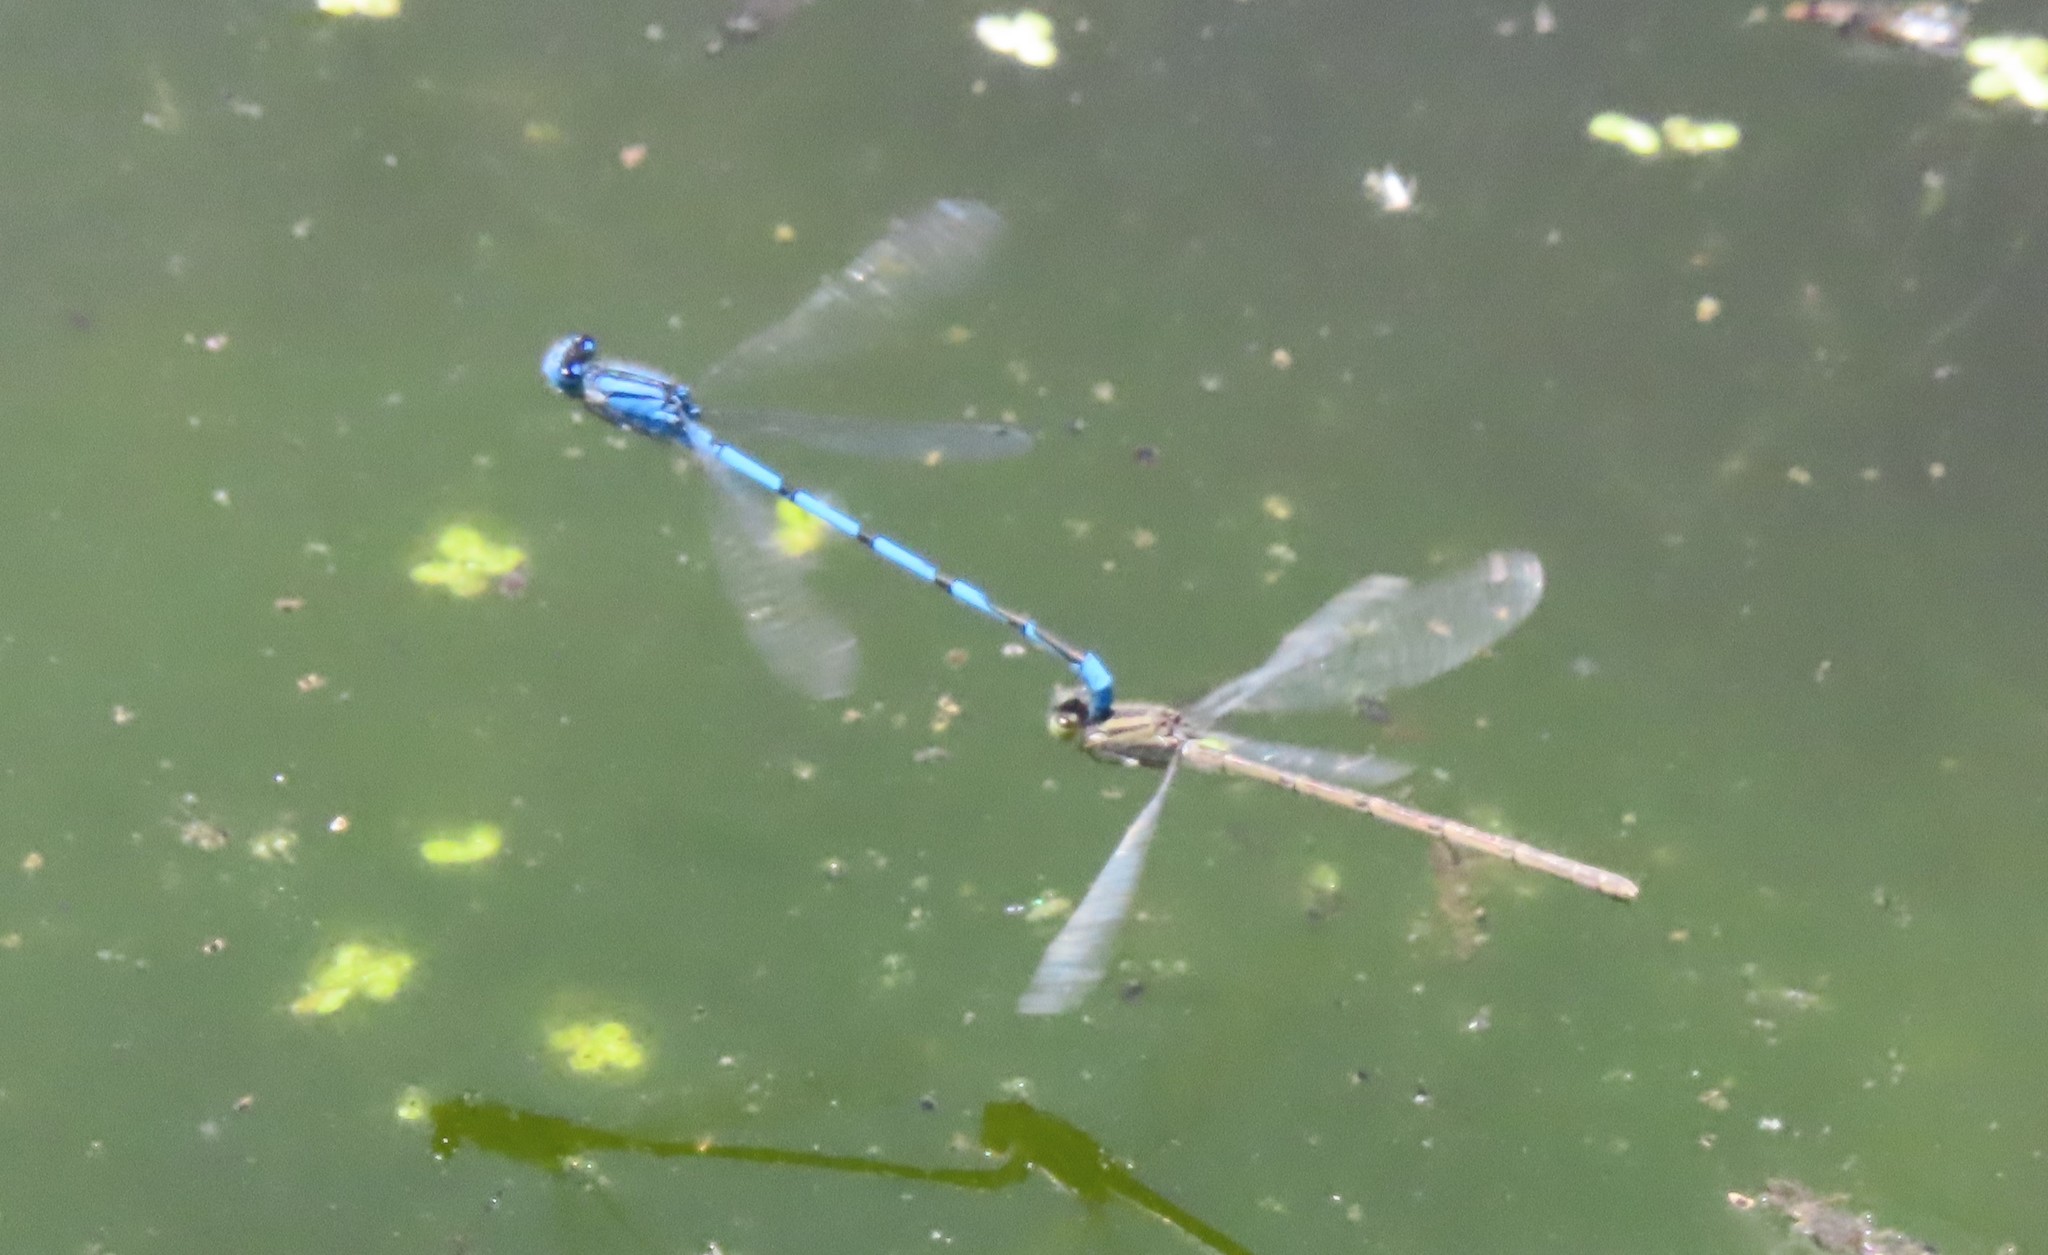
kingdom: Animalia
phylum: Arthropoda
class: Insecta
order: Odonata
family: Coenagrionidae
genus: Enallagma
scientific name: Enallagma basidens
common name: Double-striped bluet
